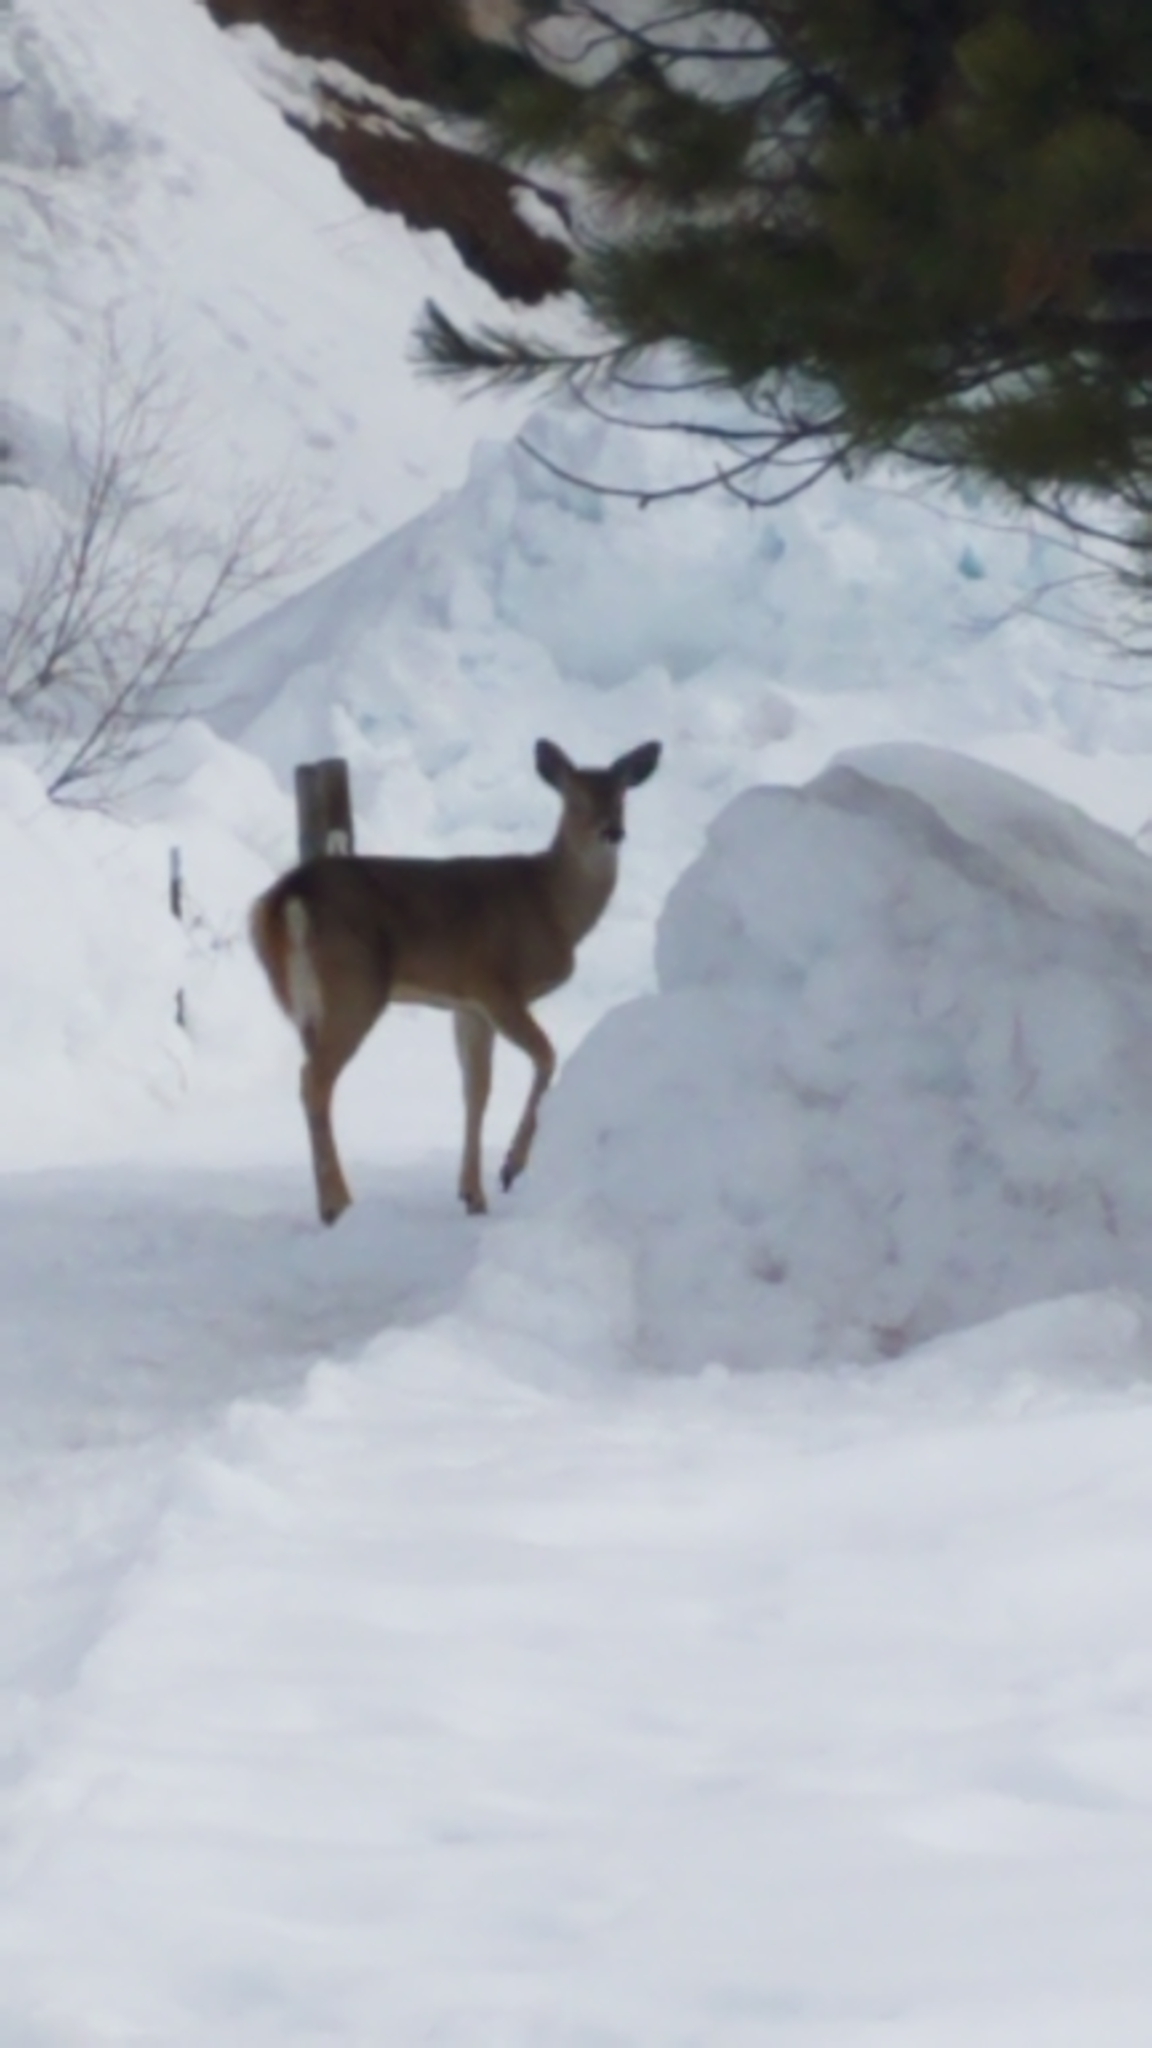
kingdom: Animalia
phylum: Chordata
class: Mammalia
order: Artiodactyla
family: Cervidae
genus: Odocoileus
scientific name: Odocoileus virginianus
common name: White-tailed deer
